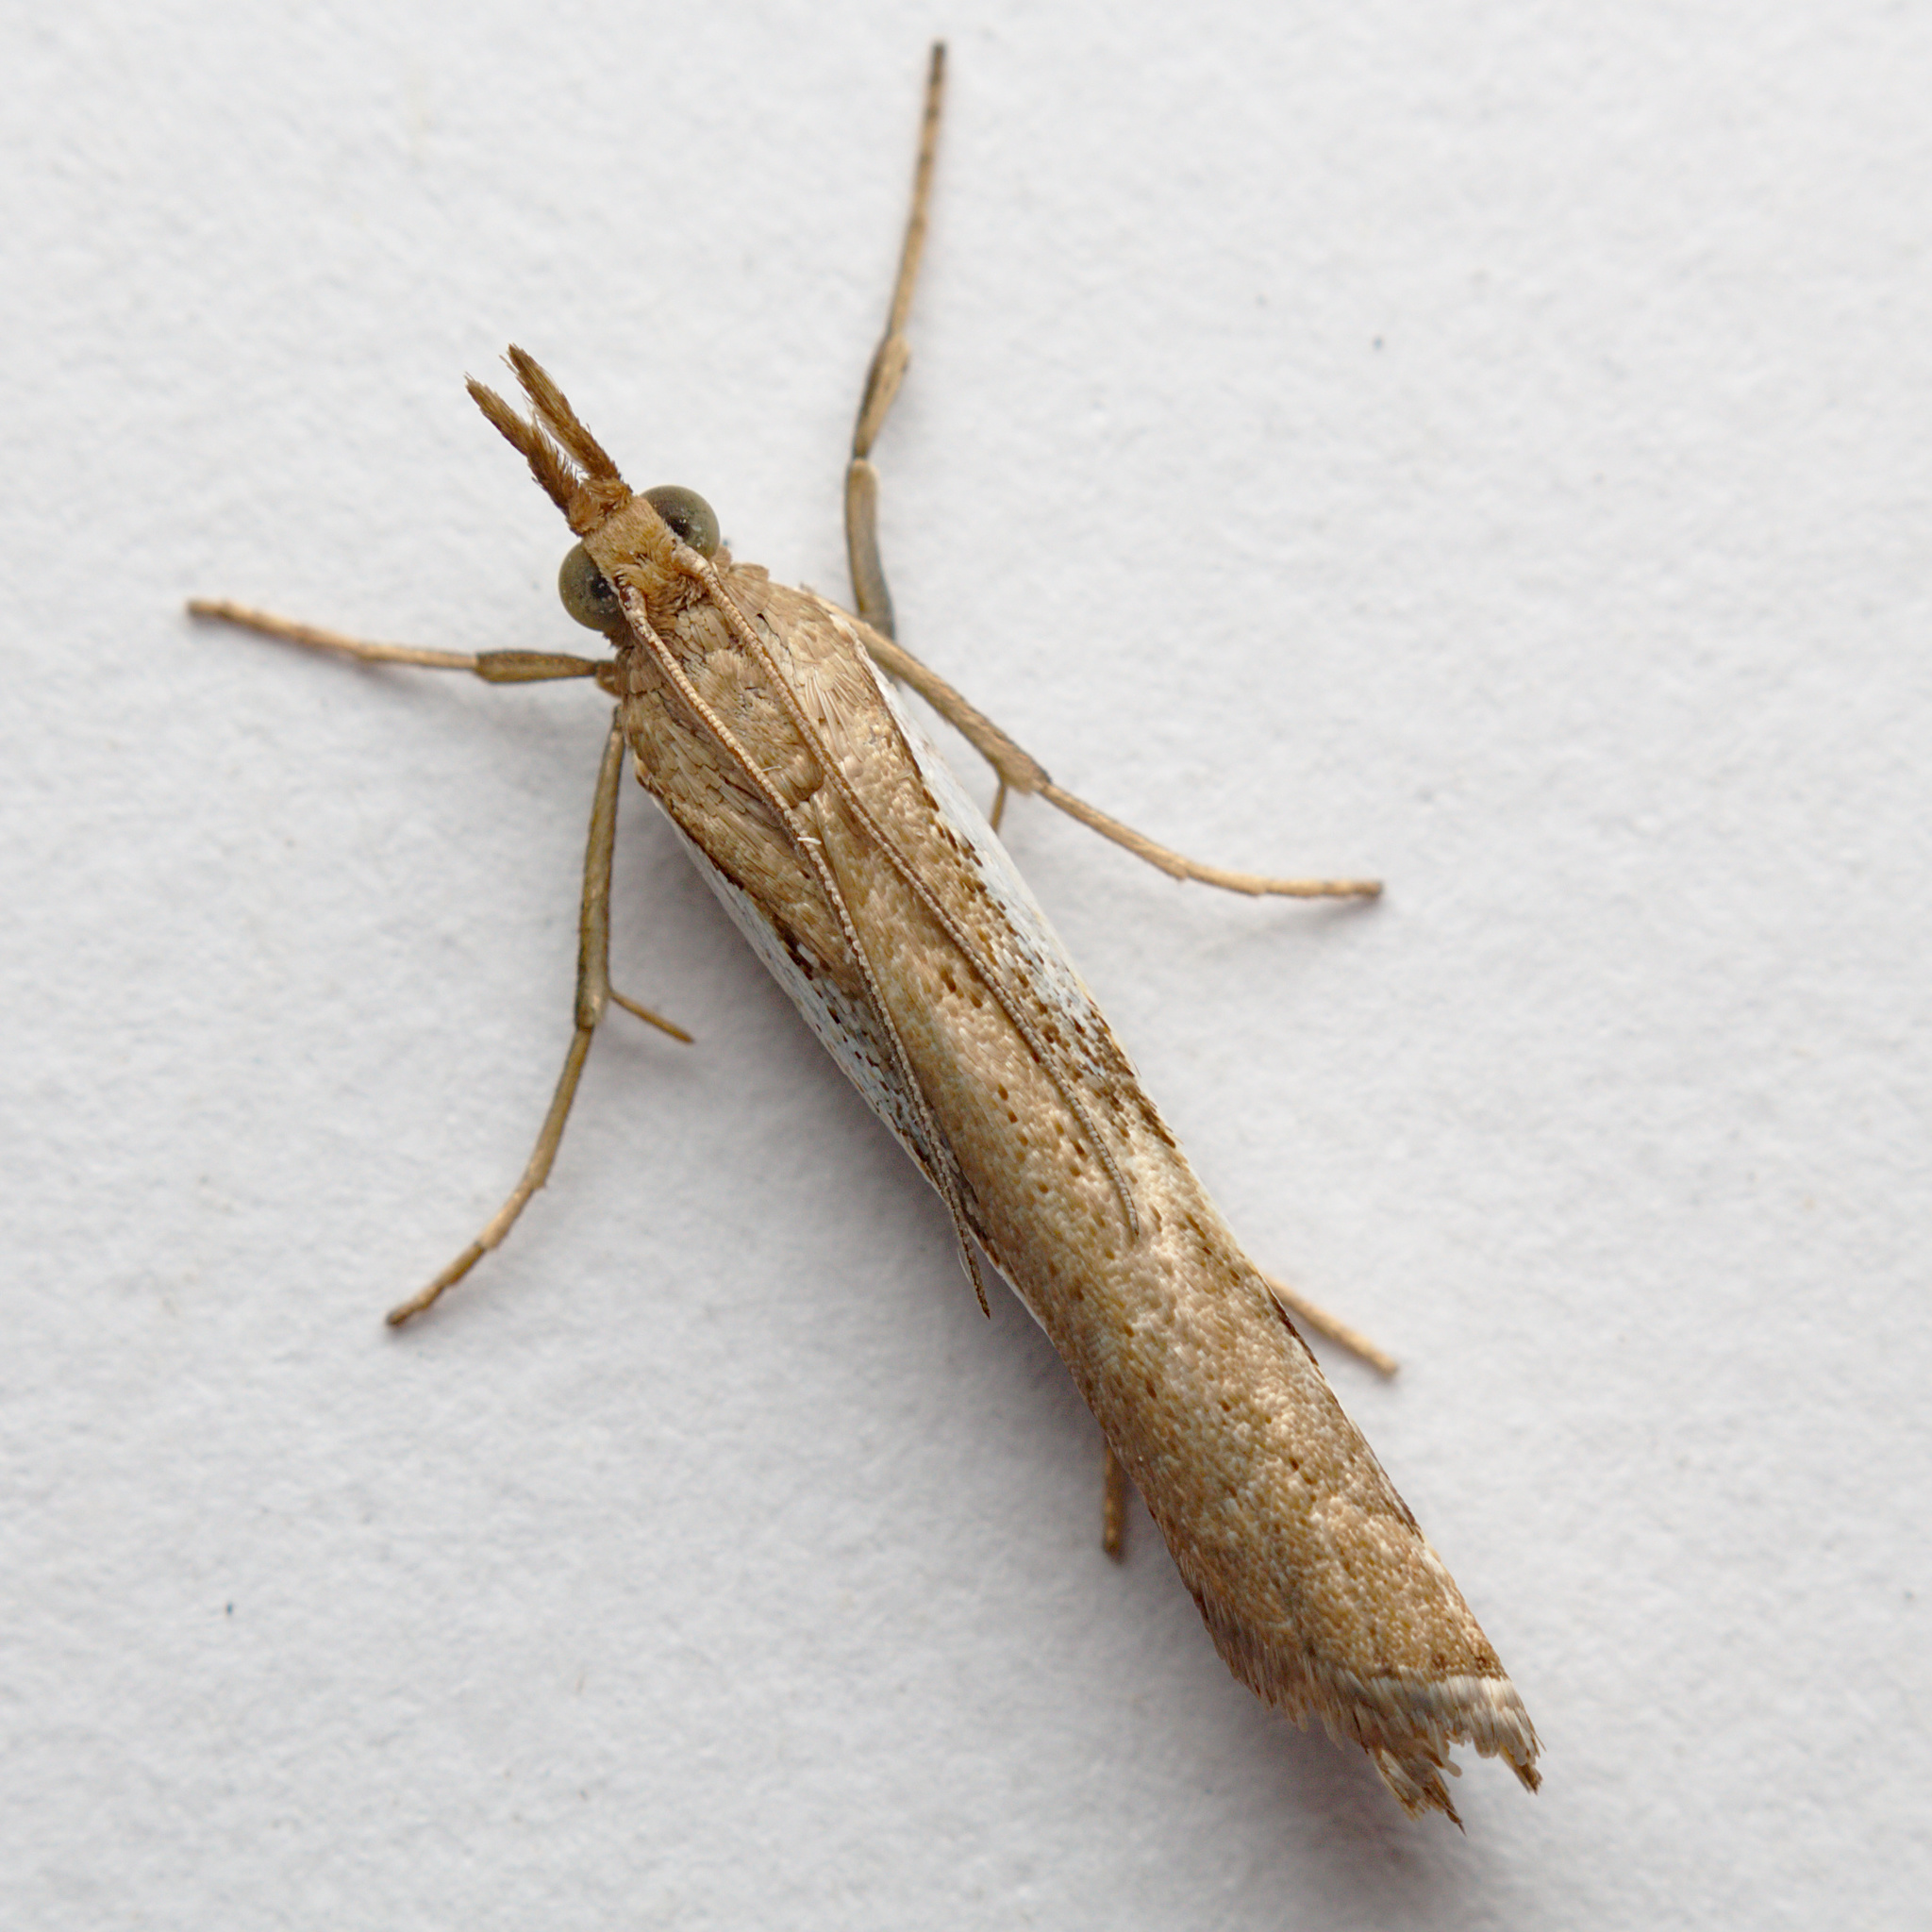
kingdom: Animalia
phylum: Arthropoda
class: Insecta
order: Lepidoptera
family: Crambidae
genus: Orocrambus
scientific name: Orocrambus flexuosellus
